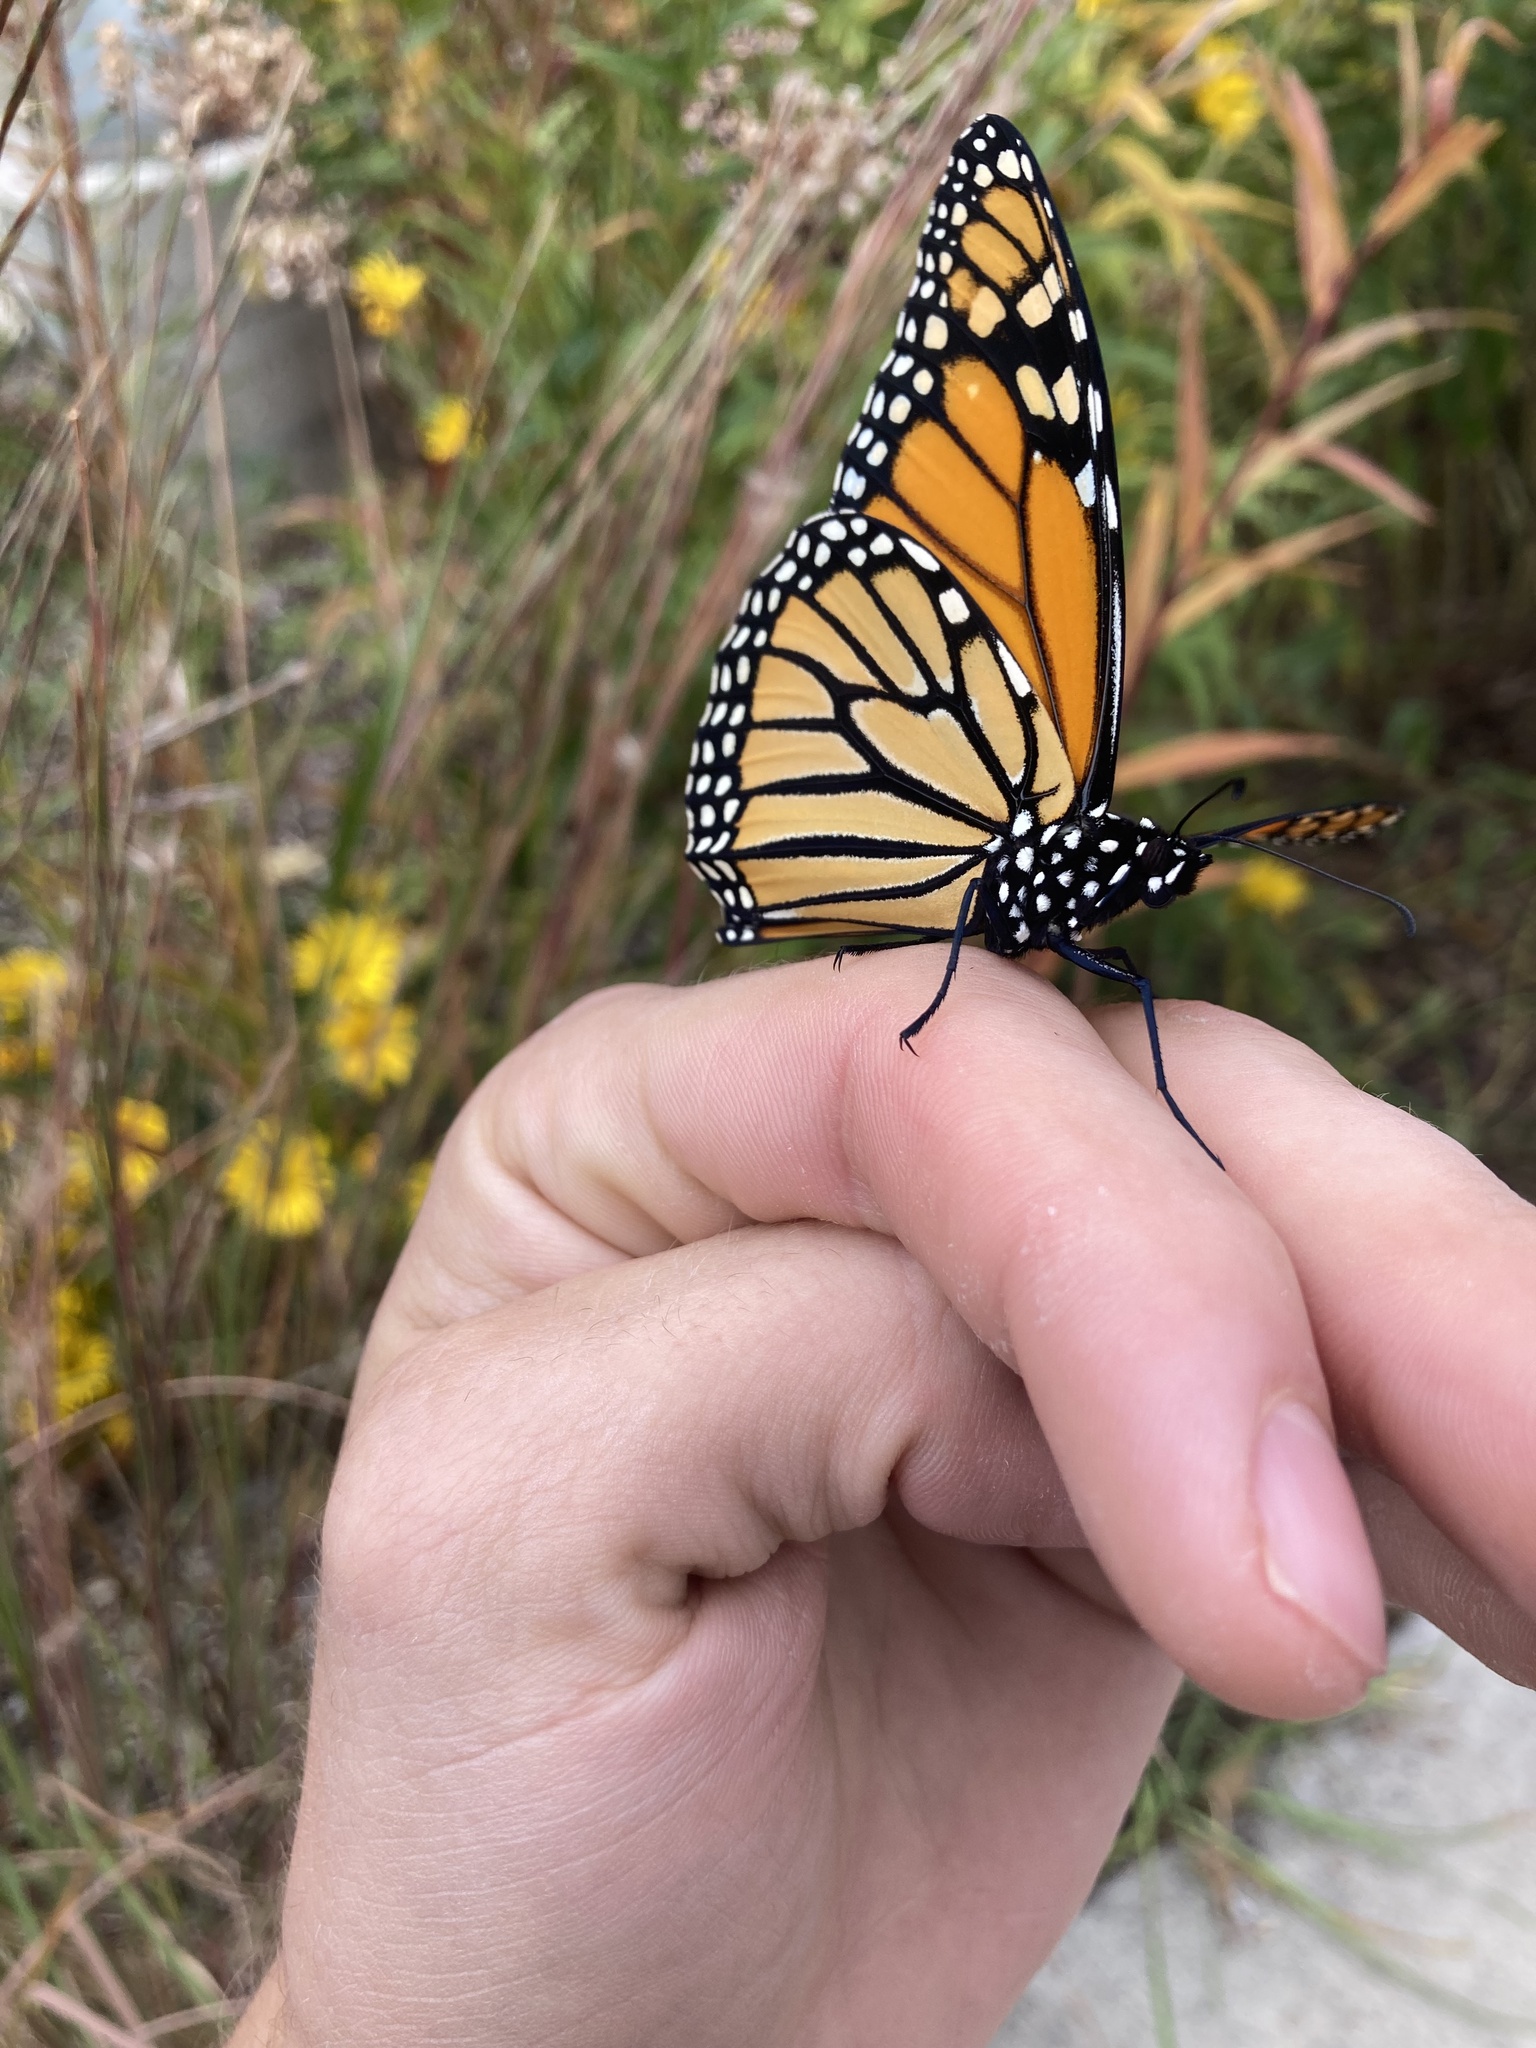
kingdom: Animalia
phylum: Arthropoda
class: Insecta
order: Lepidoptera
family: Nymphalidae
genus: Danaus
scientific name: Danaus plexippus
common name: Monarch
